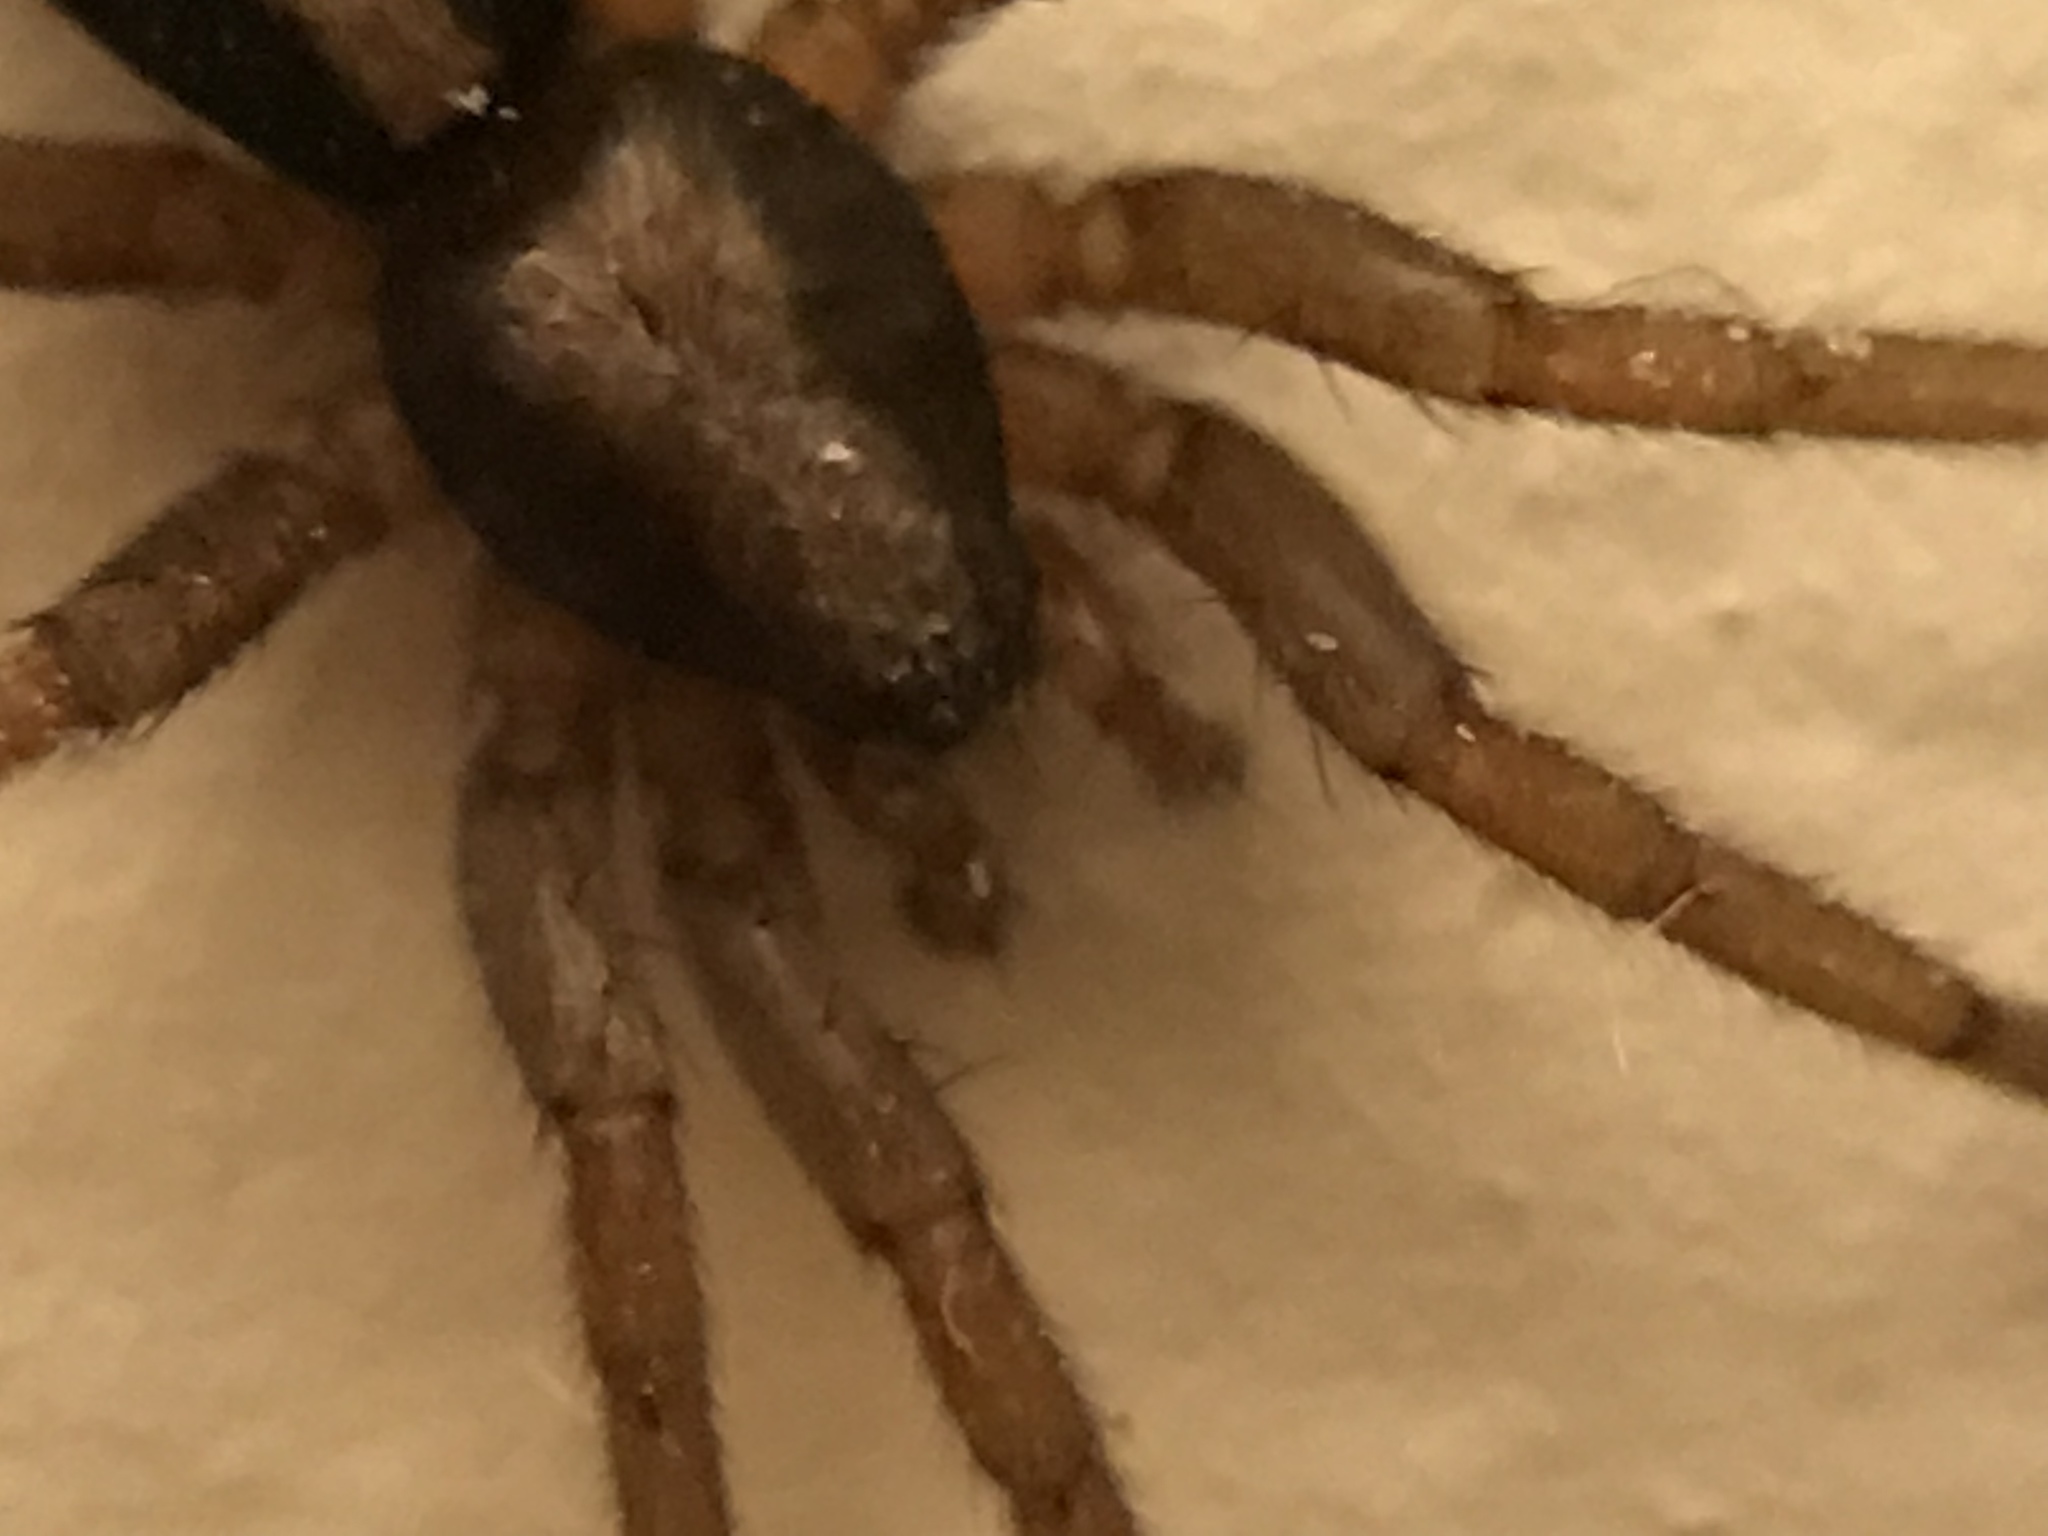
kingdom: Animalia
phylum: Arthropoda
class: Arachnida
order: Araneae
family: Gnaphosidae
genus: Herpyllus
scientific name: Herpyllus ecclesiasticus
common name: Eastern parson spider
